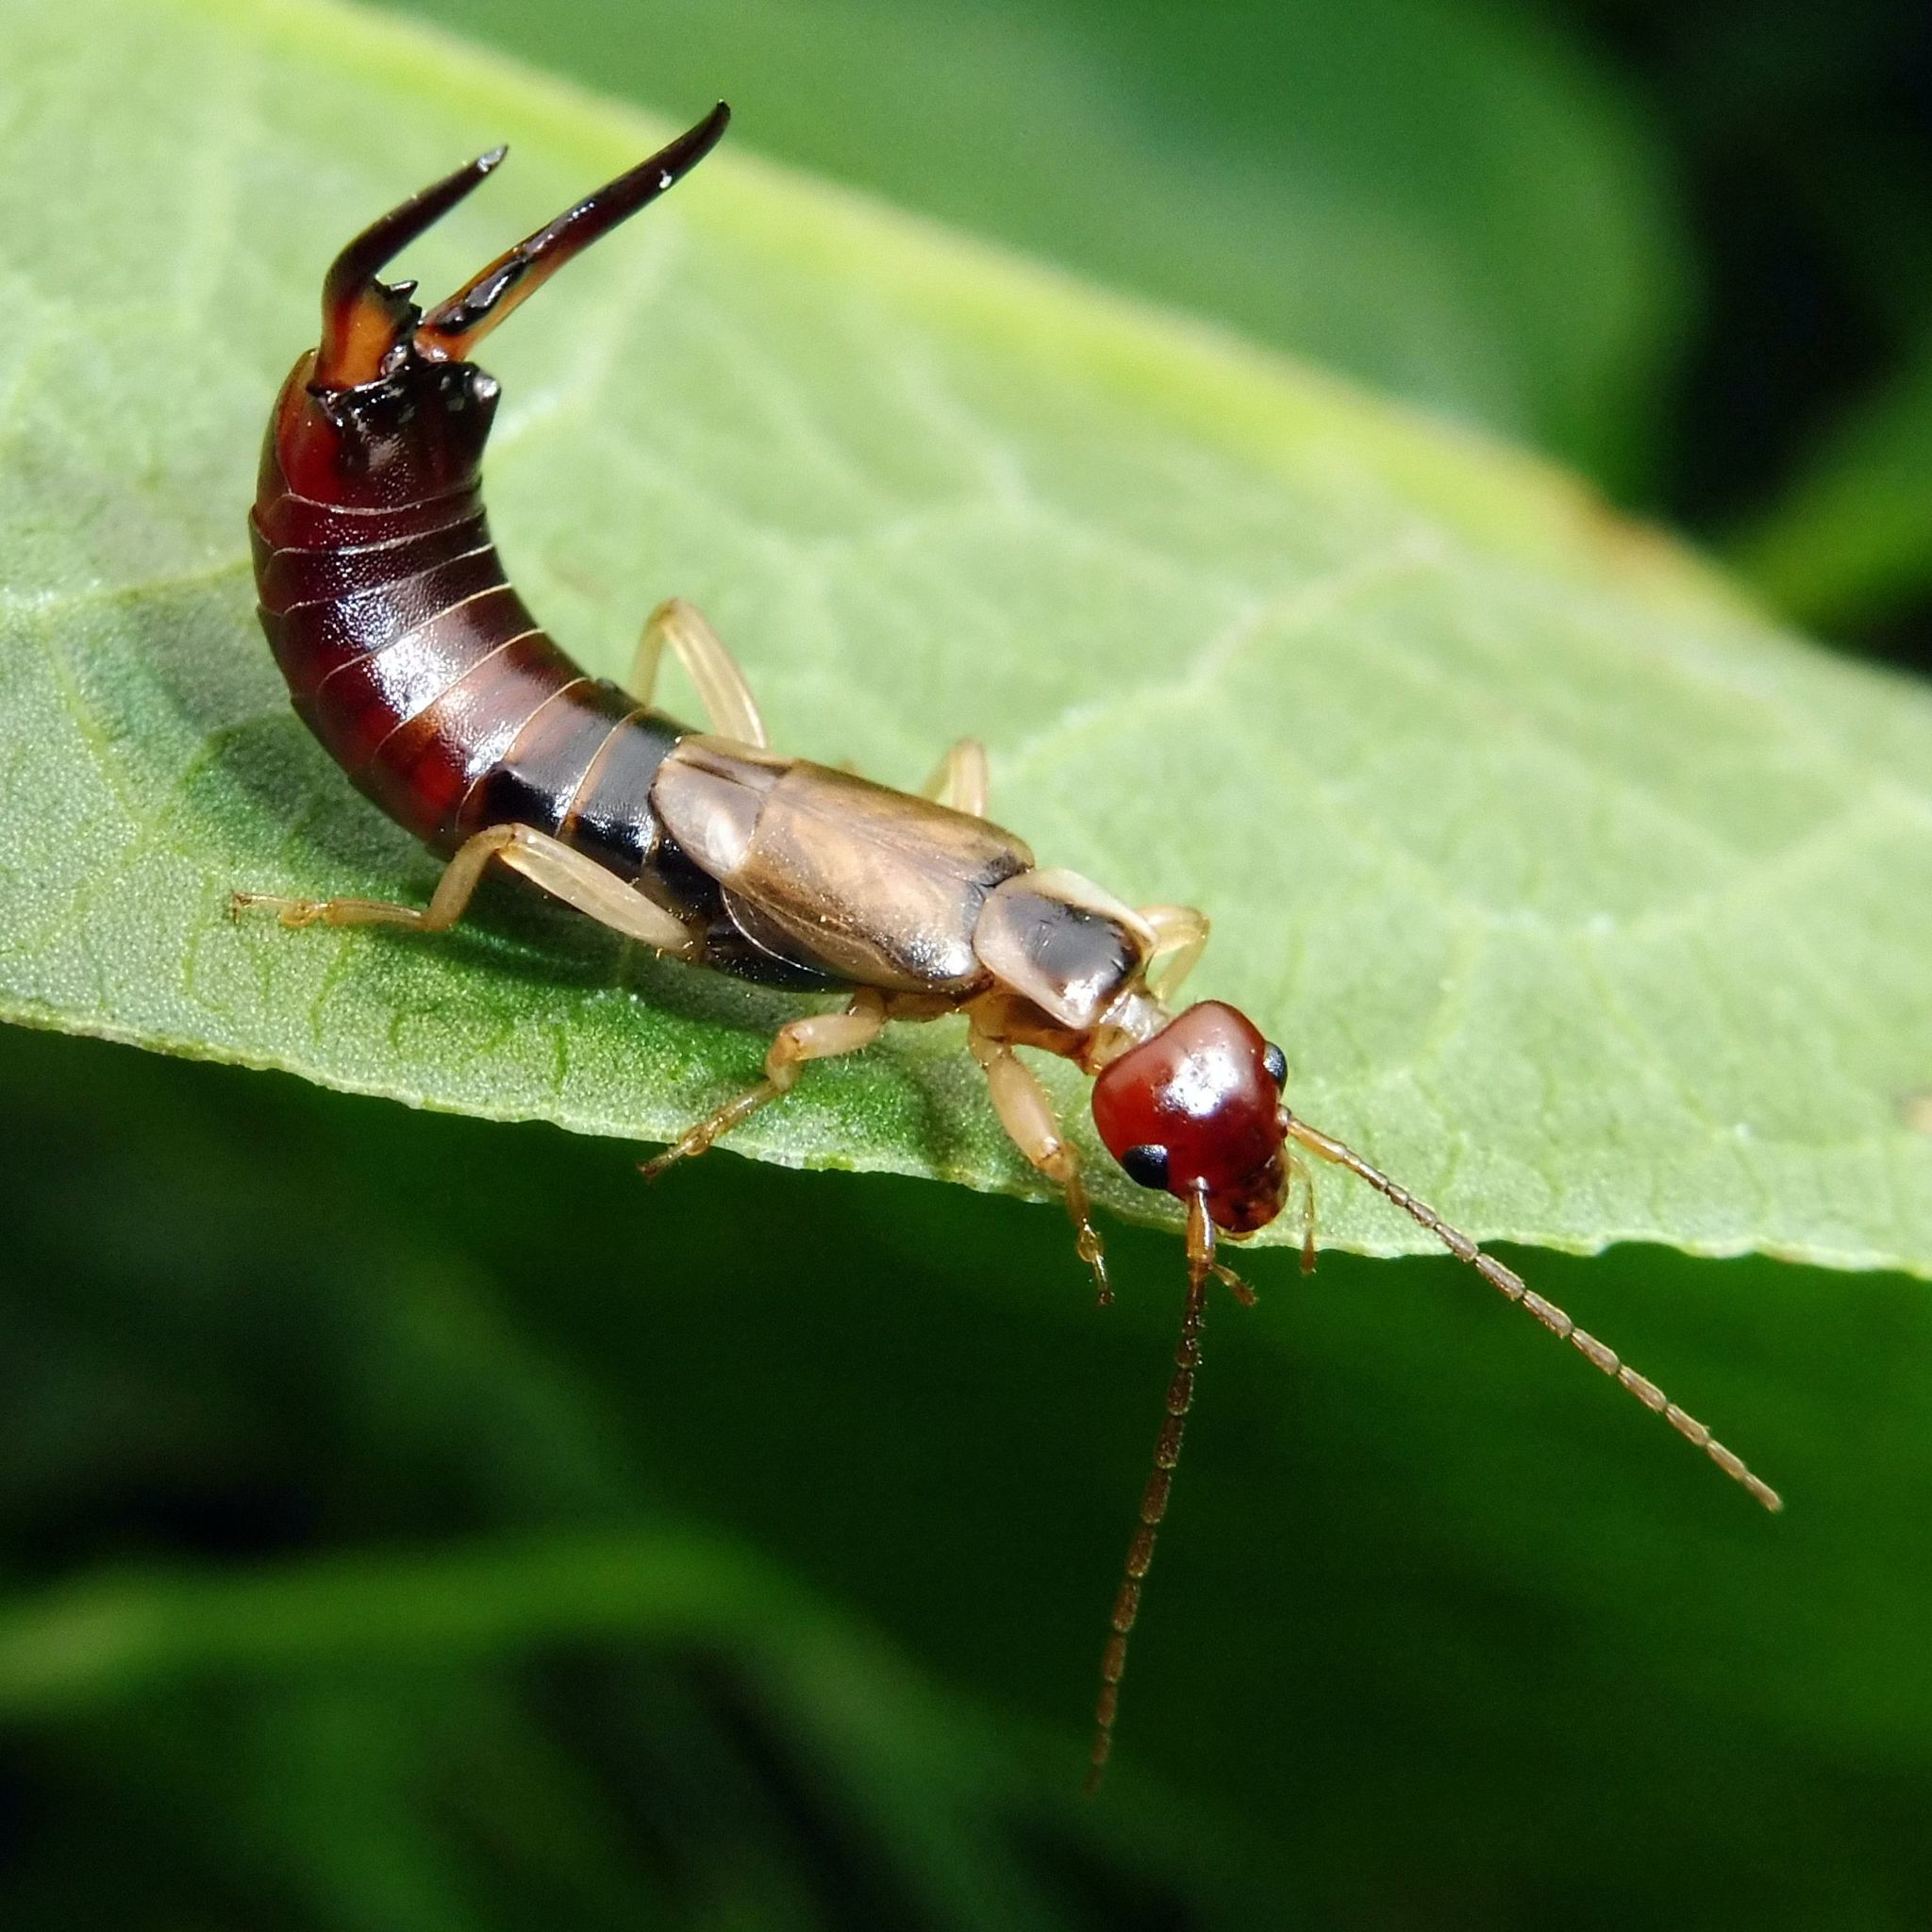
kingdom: Animalia
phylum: Arthropoda
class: Insecta
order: Dermaptera
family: Forficulidae
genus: Forficula
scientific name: Forficula
